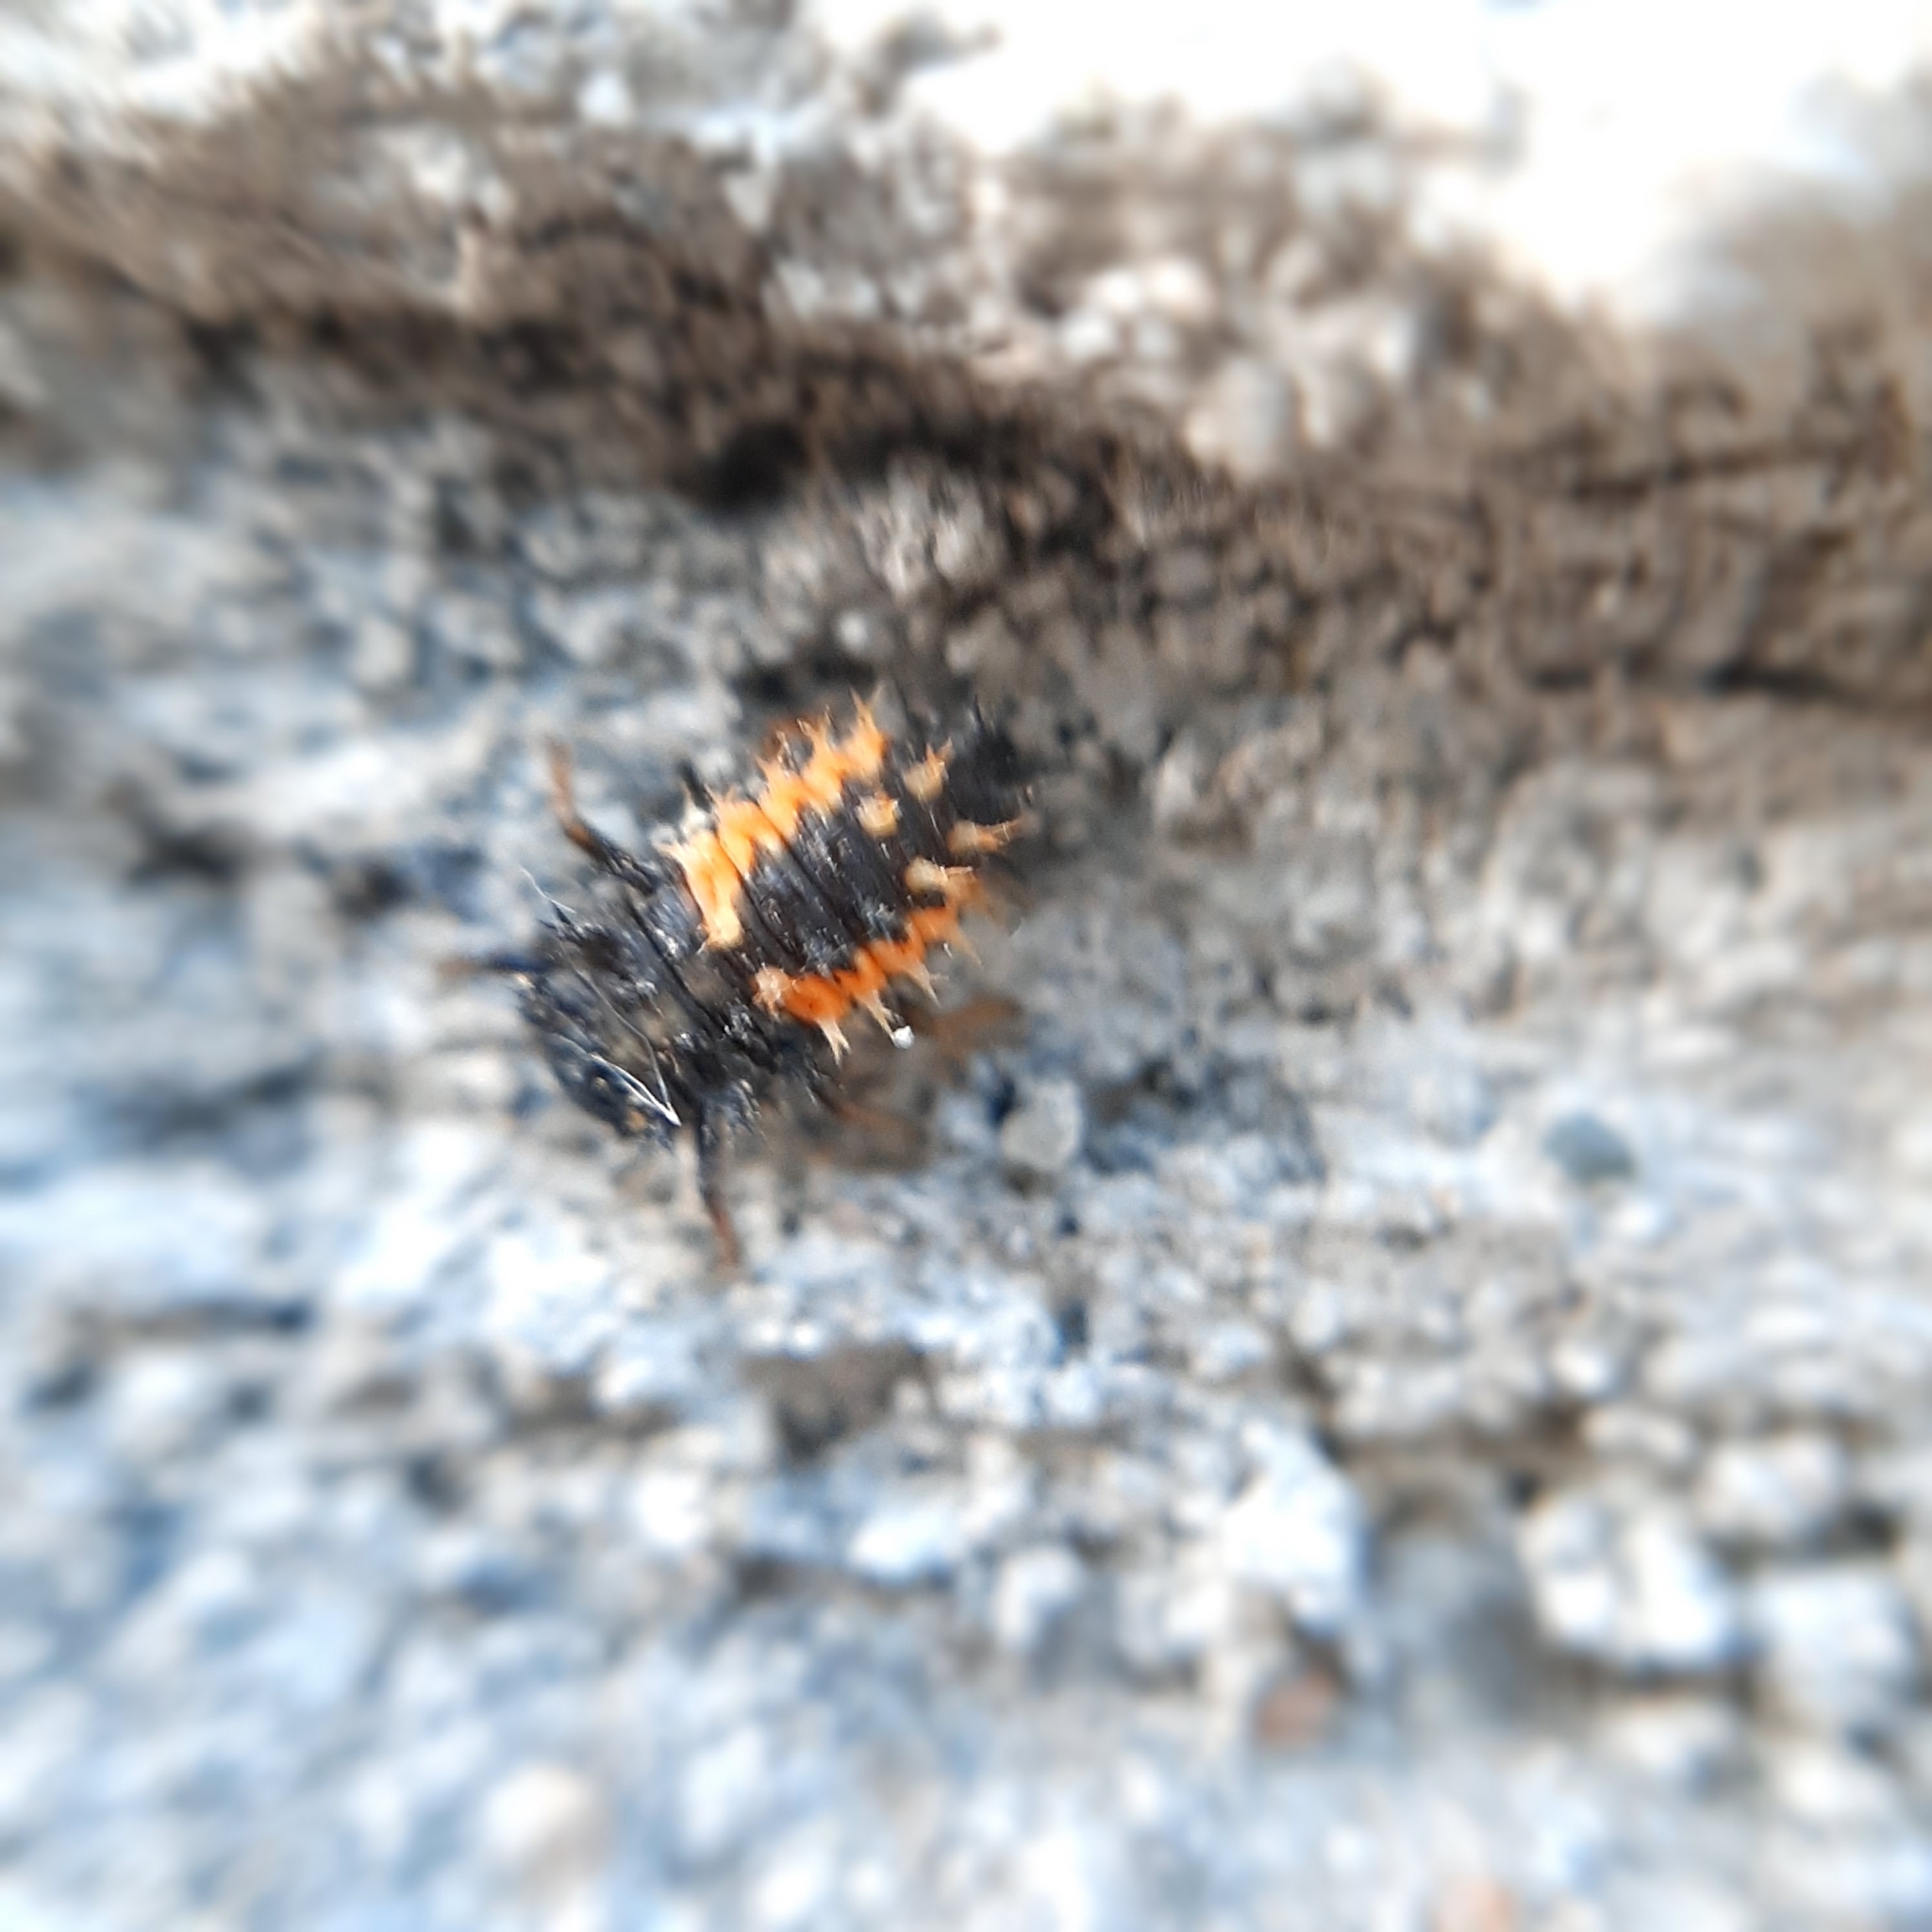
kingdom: Animalia
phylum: Arthropoda
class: Insecta
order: Coleoptera
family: Coccinellidae
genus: Harmonia
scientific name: Harmonia axyridis
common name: Harlequin ladybird
